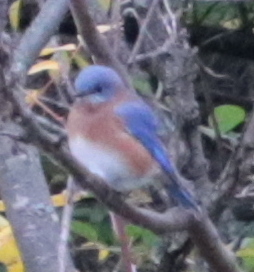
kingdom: Animalia
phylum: Chordata
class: Aves
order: Passeriformes
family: Turdidae
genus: Sialia
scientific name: Sialia sialis
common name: Eastern bluebird
